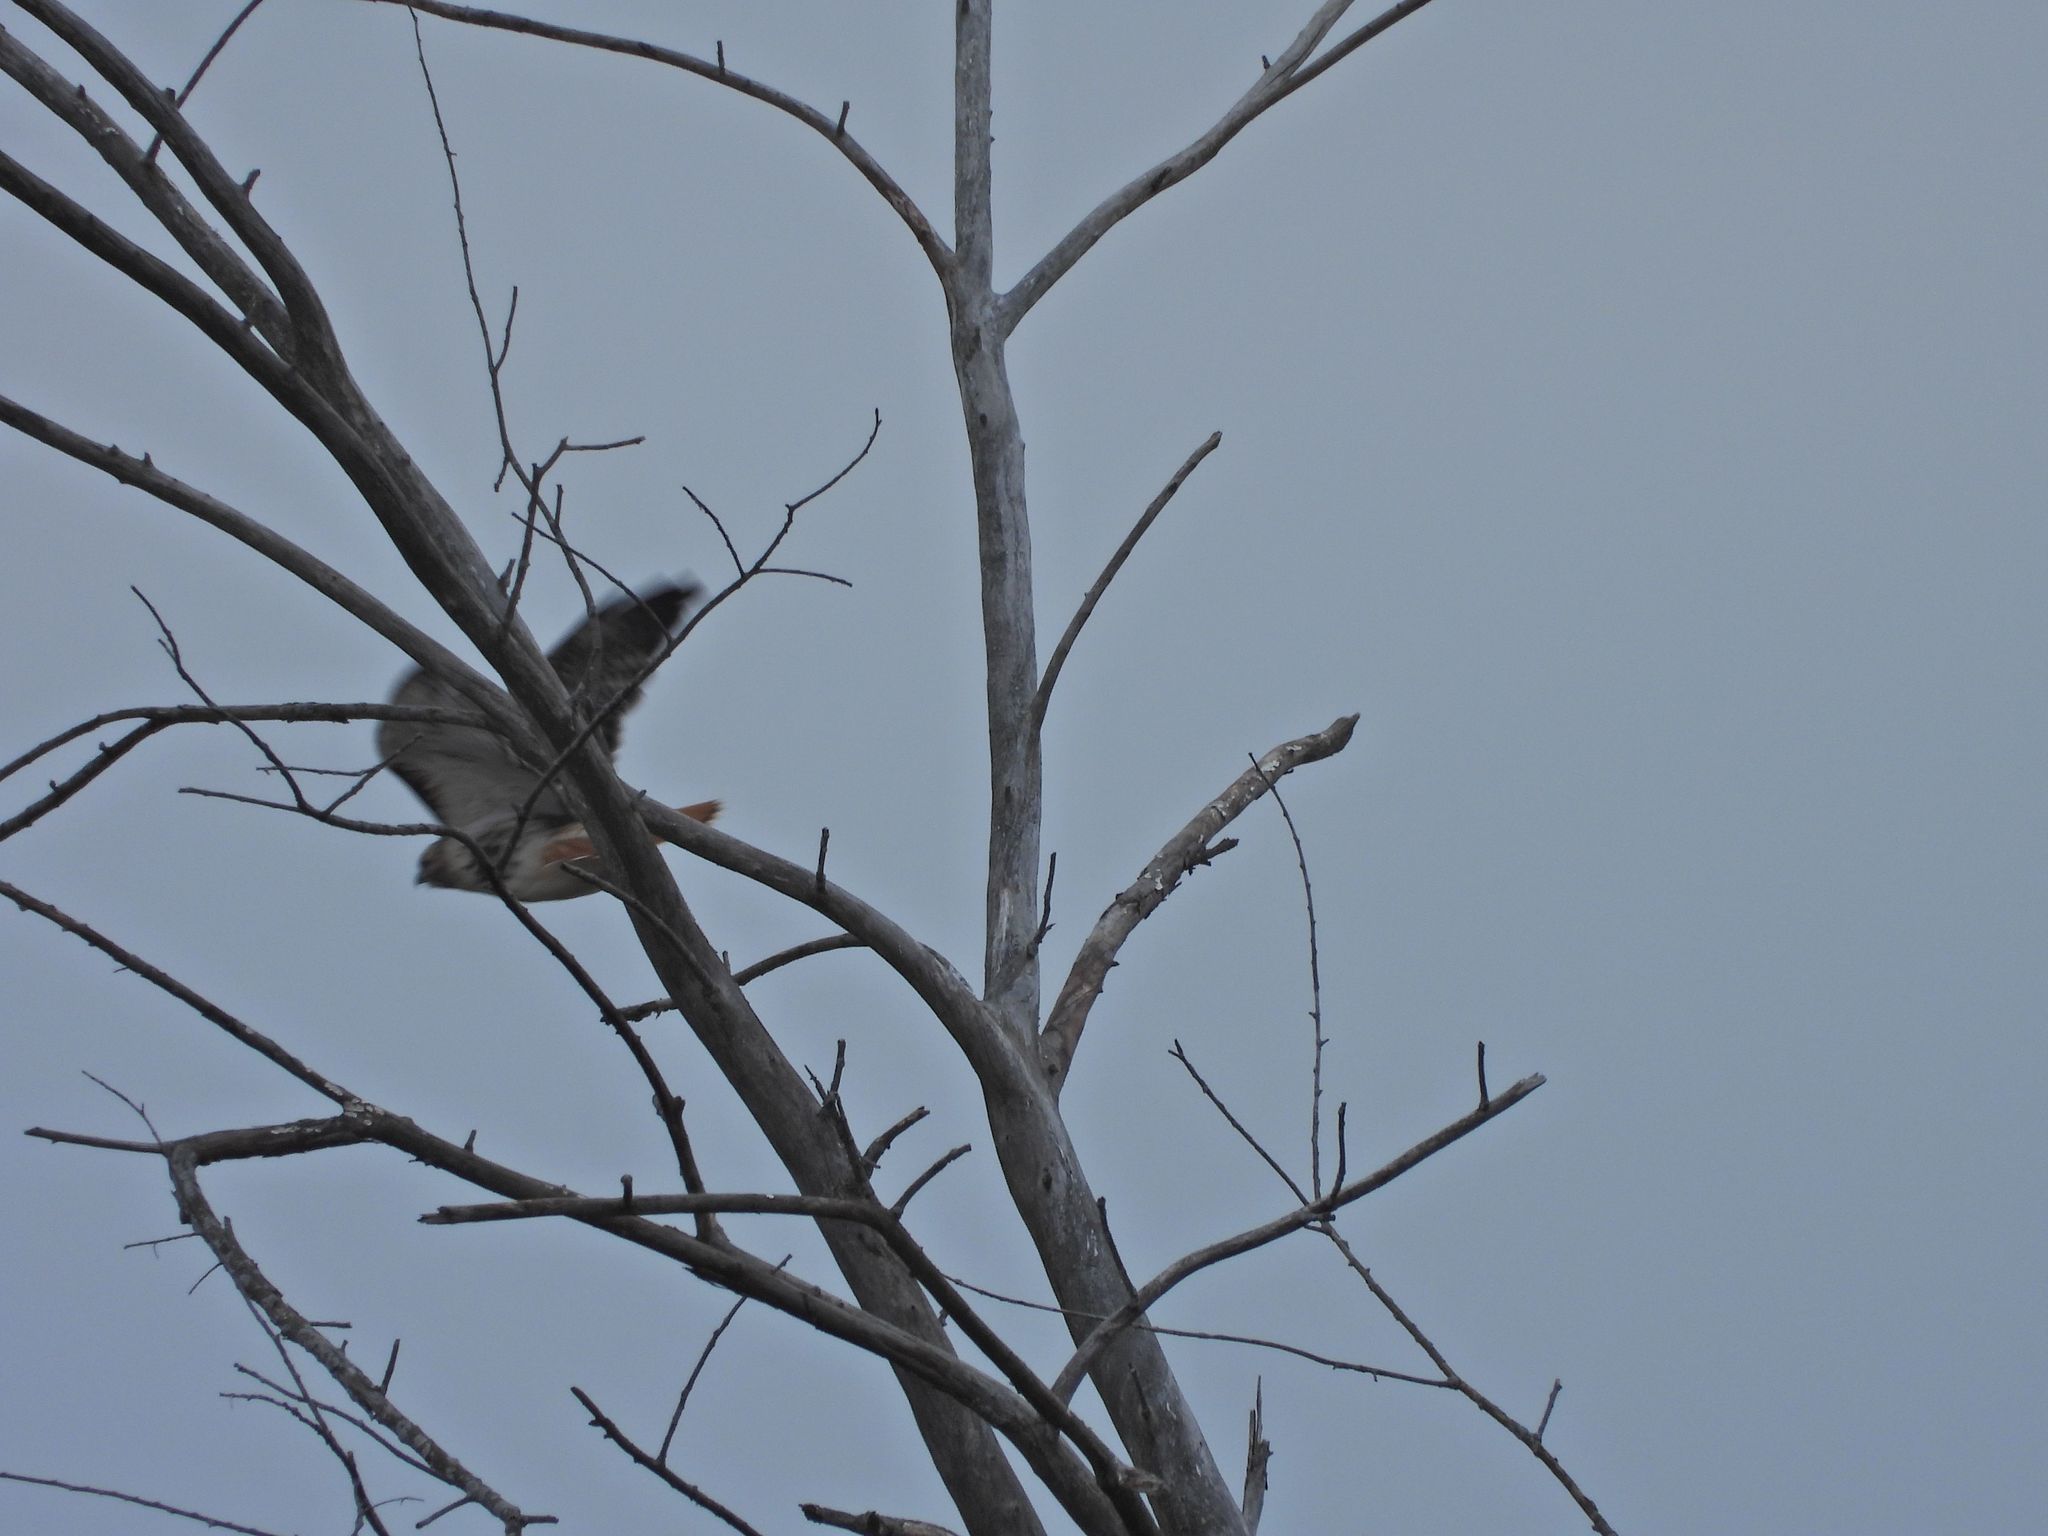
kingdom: Animalia
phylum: Chordata
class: Aves
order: Accipitriformes
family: Accipitridae
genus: Buteo
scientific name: Buteo jamaicensis
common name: Red-tailed hawk
